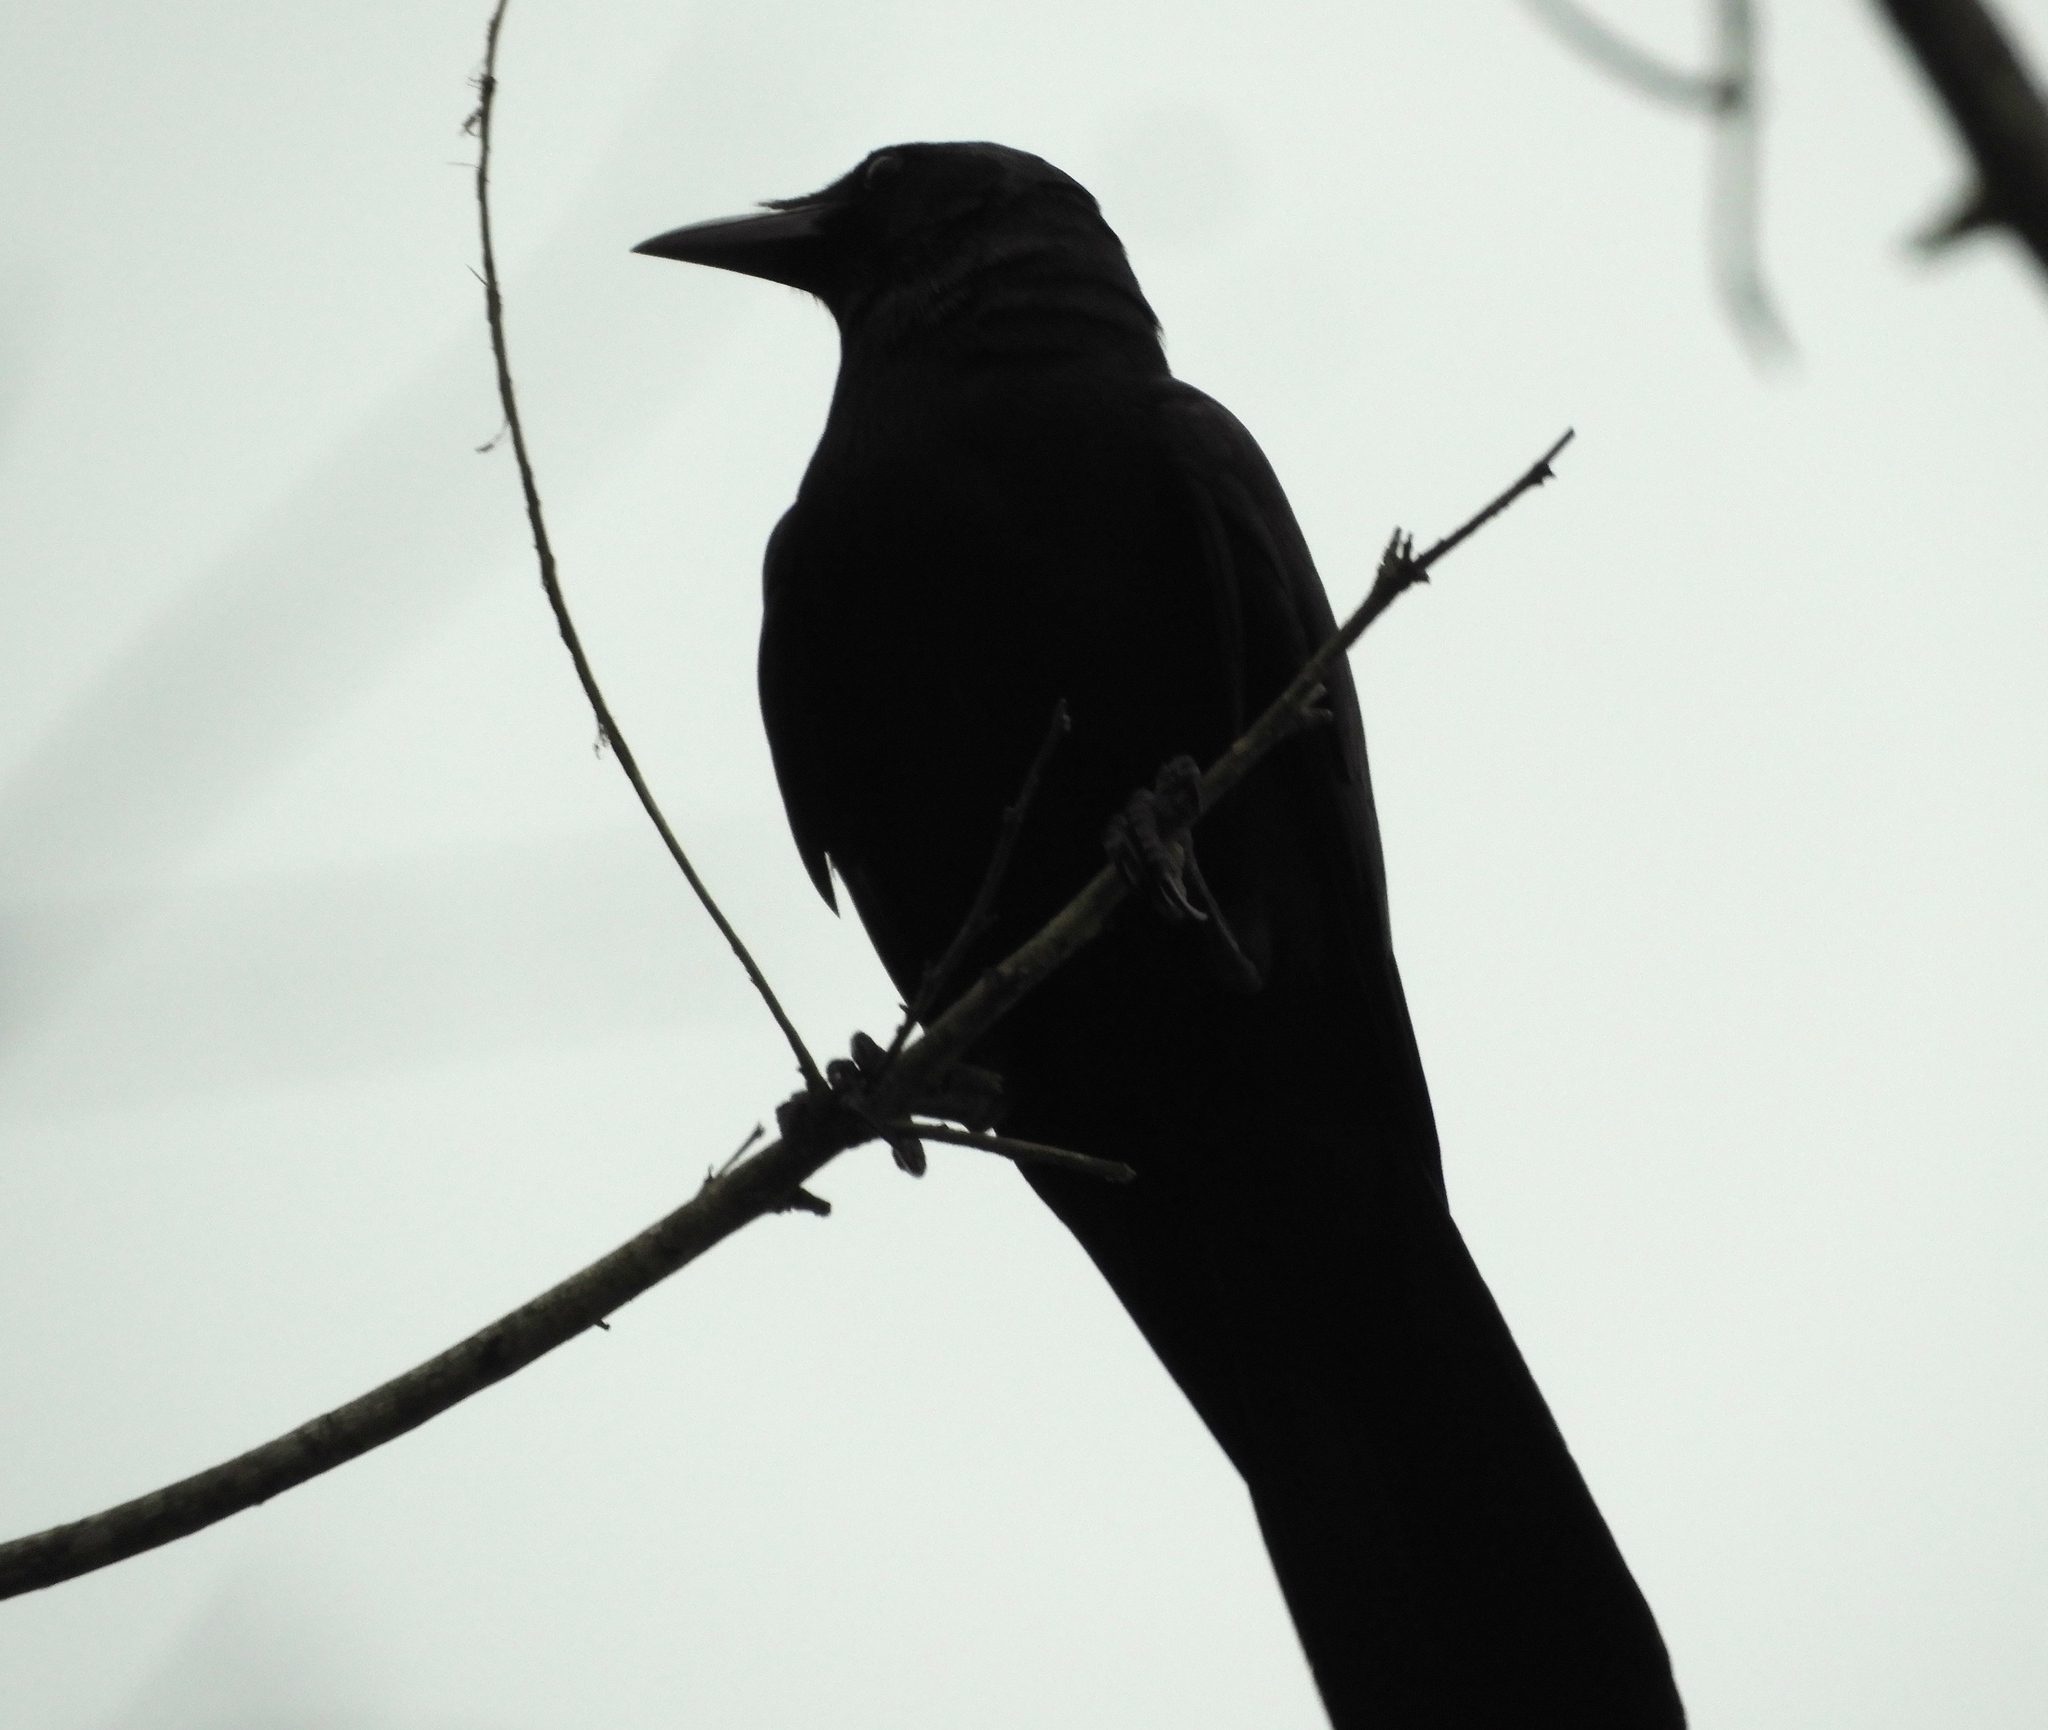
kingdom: Animalia
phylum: Chordata
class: Aves
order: Passeriformes
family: Corvidae
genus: Corvus
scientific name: Corvus sinaloae
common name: Sinaloa crow
